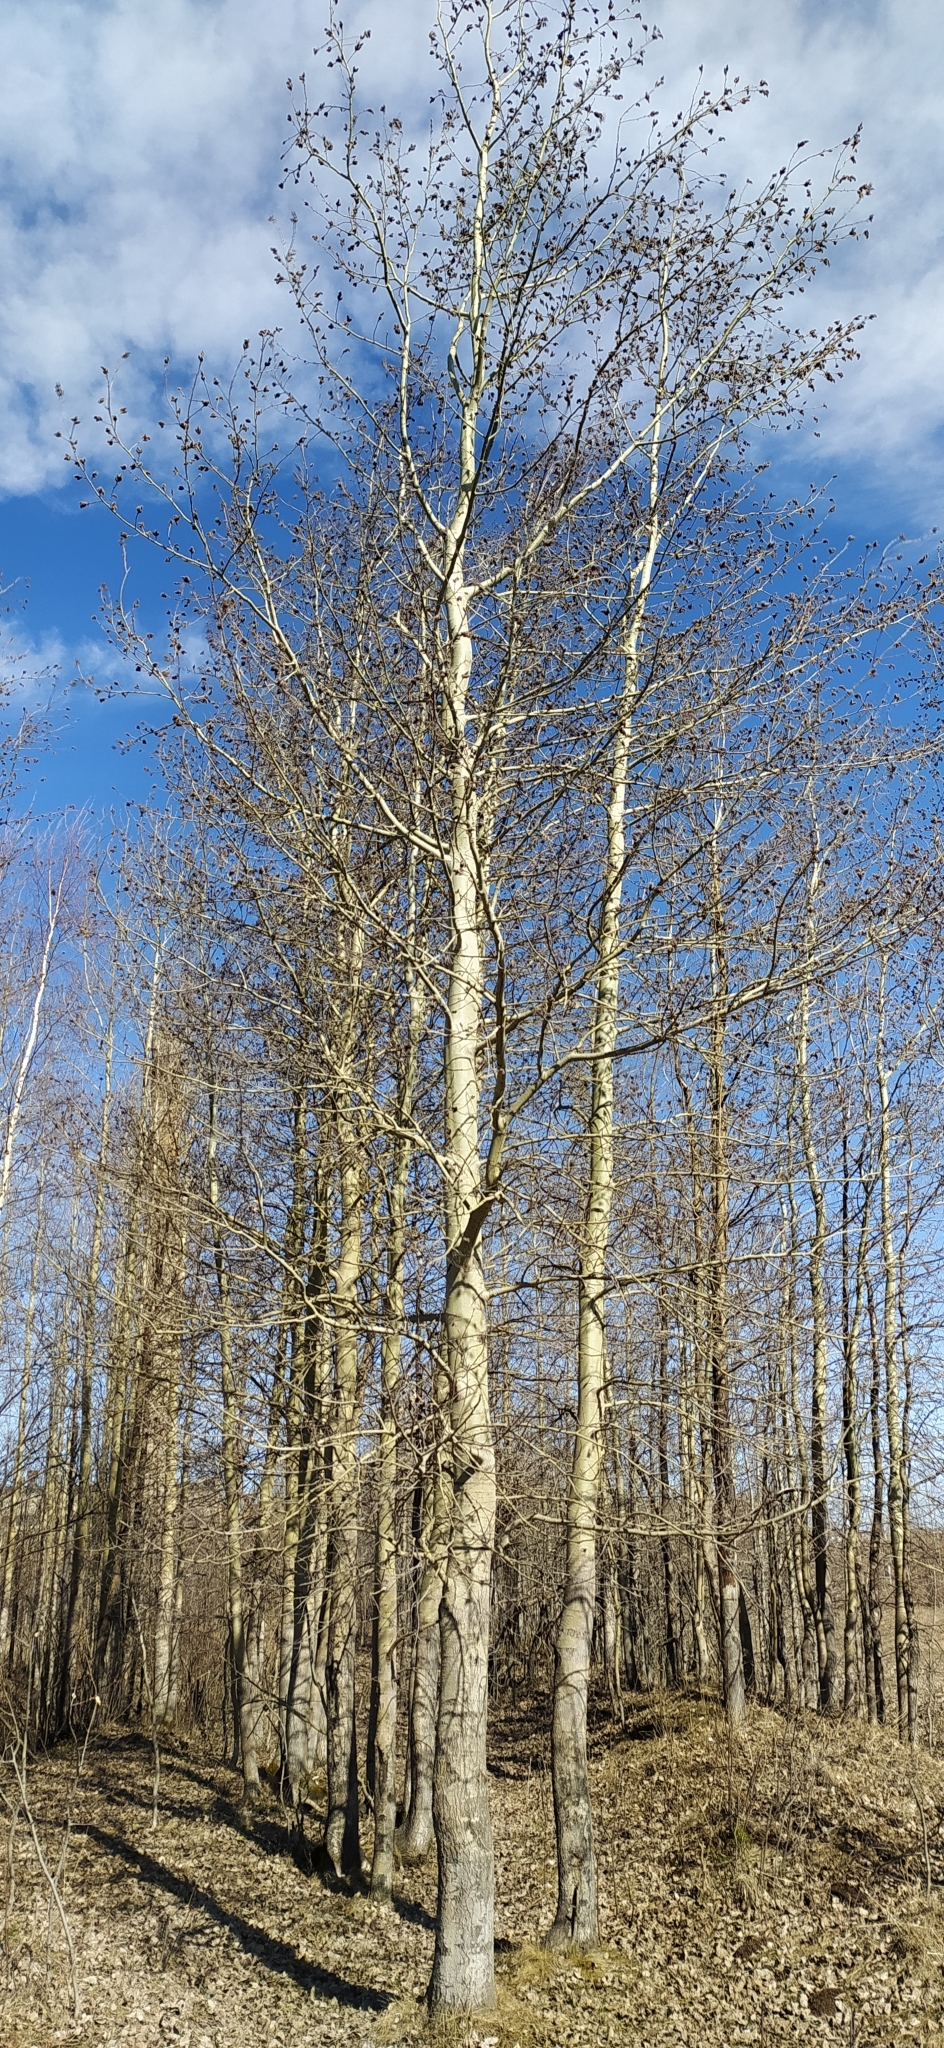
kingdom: Plantae
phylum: Tracheophyta
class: Magnoliopsida
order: Malpighiales
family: Salicaceae
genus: Populus
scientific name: Populus tremula
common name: European aspen
